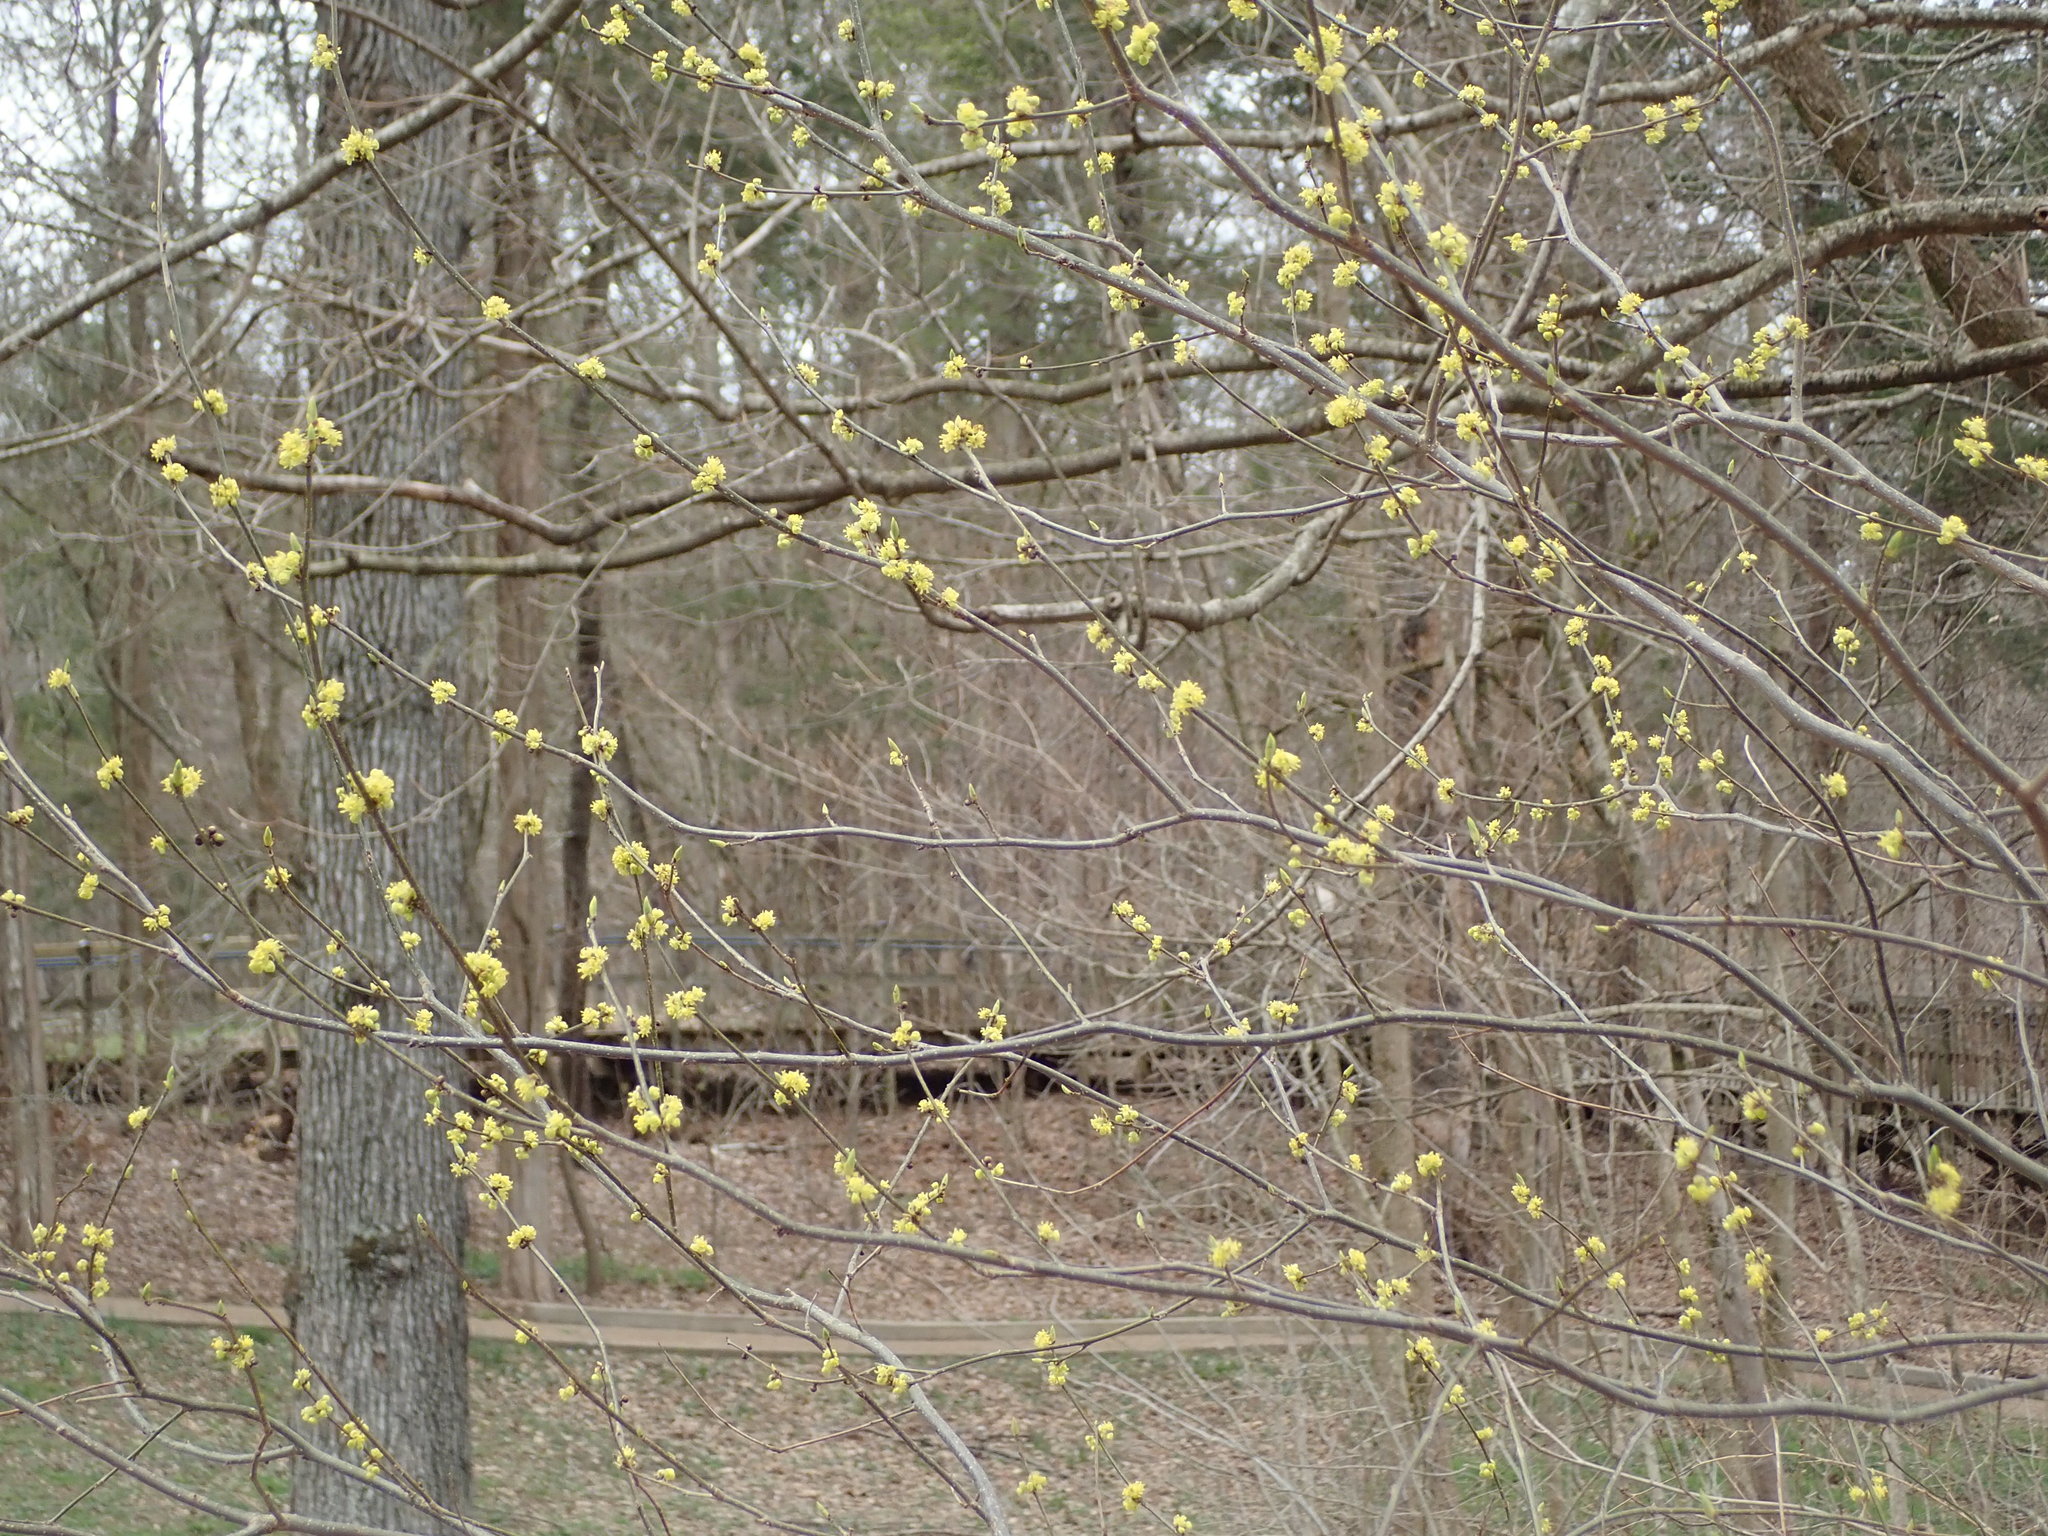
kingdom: Plantae
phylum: Tracheophyta
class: Magnoliopsida
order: Laurales
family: Lauraceae
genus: Lindera
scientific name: Lindera benzoin
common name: Spicebush
